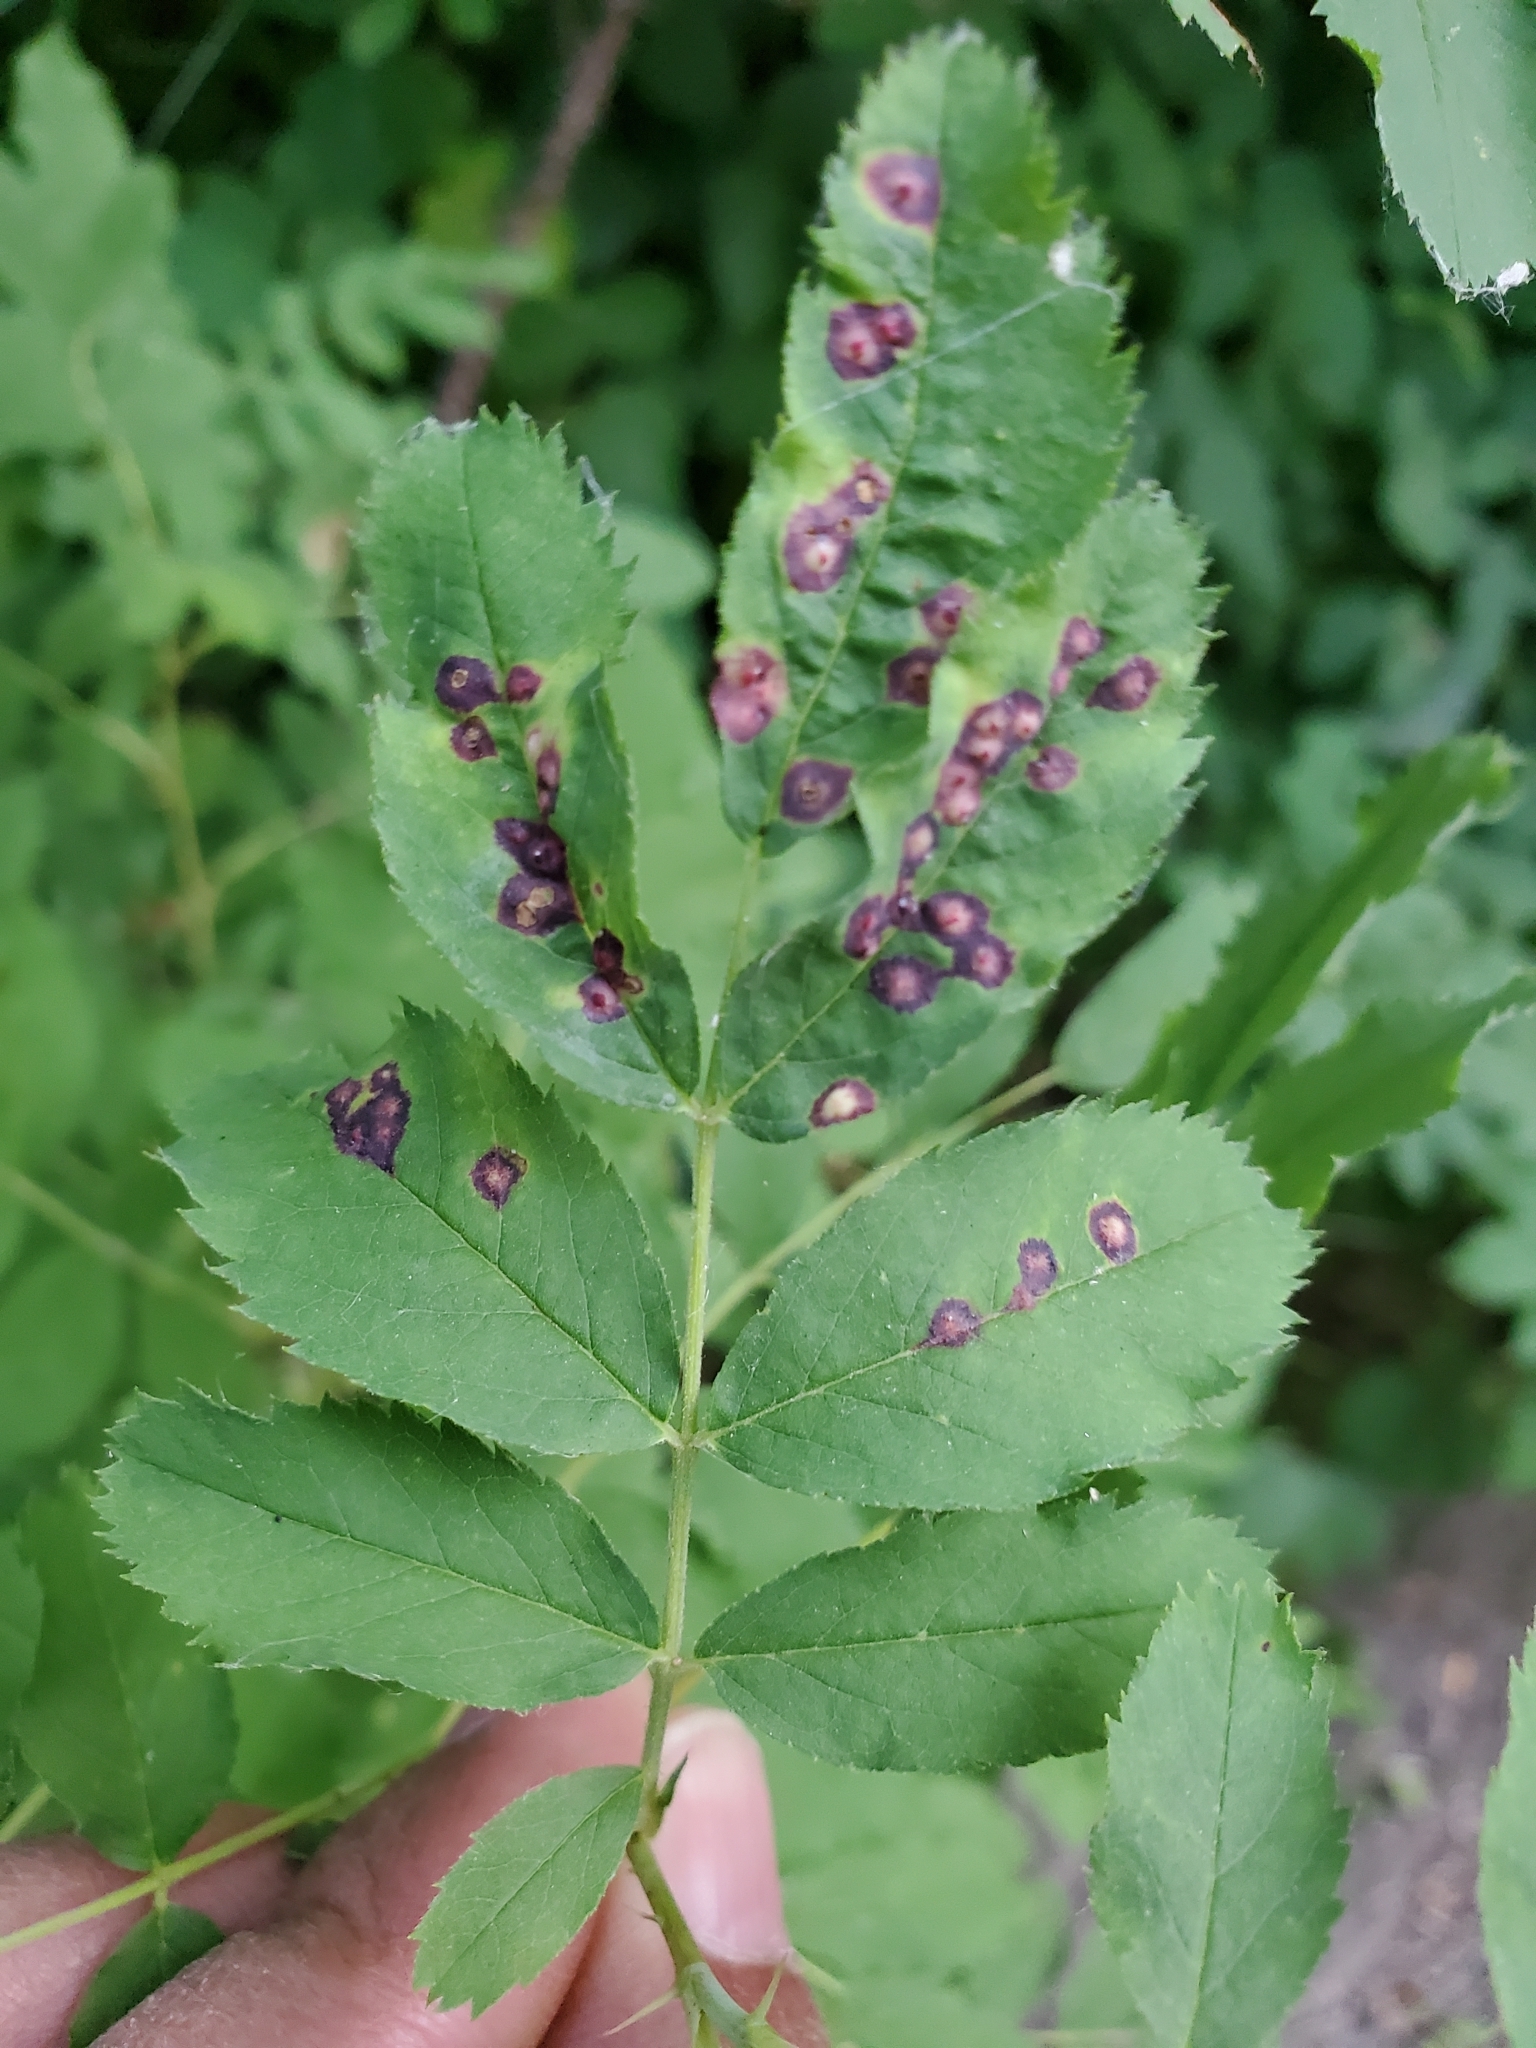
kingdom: Animalia
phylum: Arthropoda
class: Insecta
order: Hymenoptera
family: Cynipidae
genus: Diplolepis
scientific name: Diplolepis rosaefolii
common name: Blister-gall wasp
